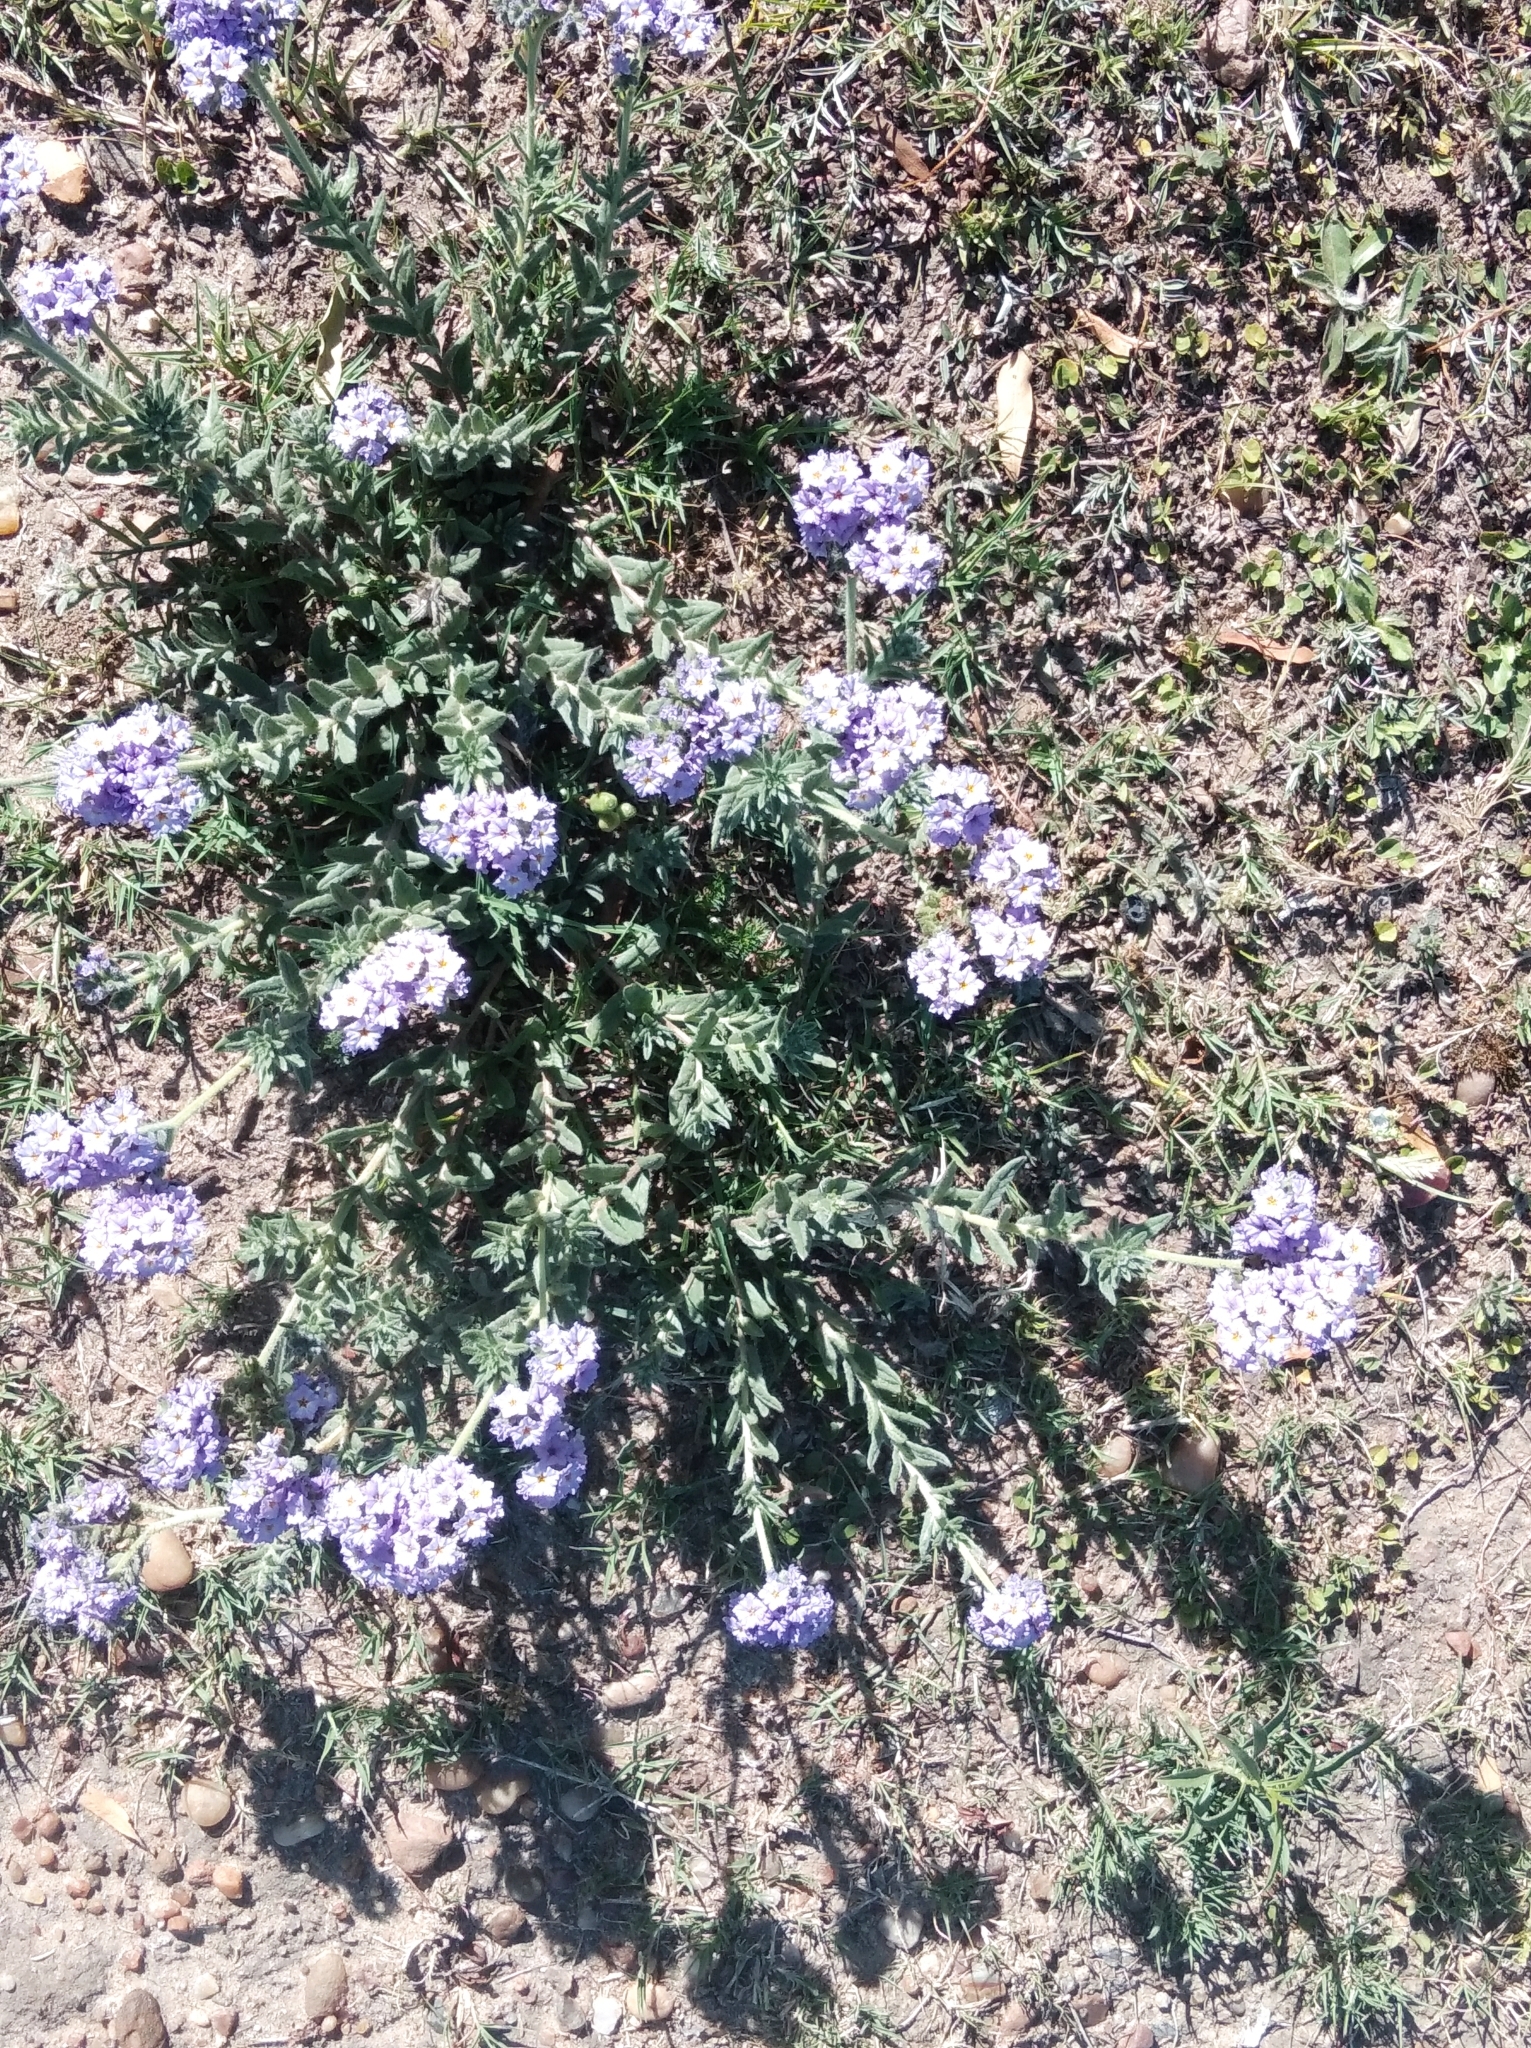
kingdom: Plantae
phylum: Tracheophyta
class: Magnoliopsida
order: Boraginales
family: Heliotropiaceae
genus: Heliotropium
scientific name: Heliotropium amplexicaule
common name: Clasping heliotrope
